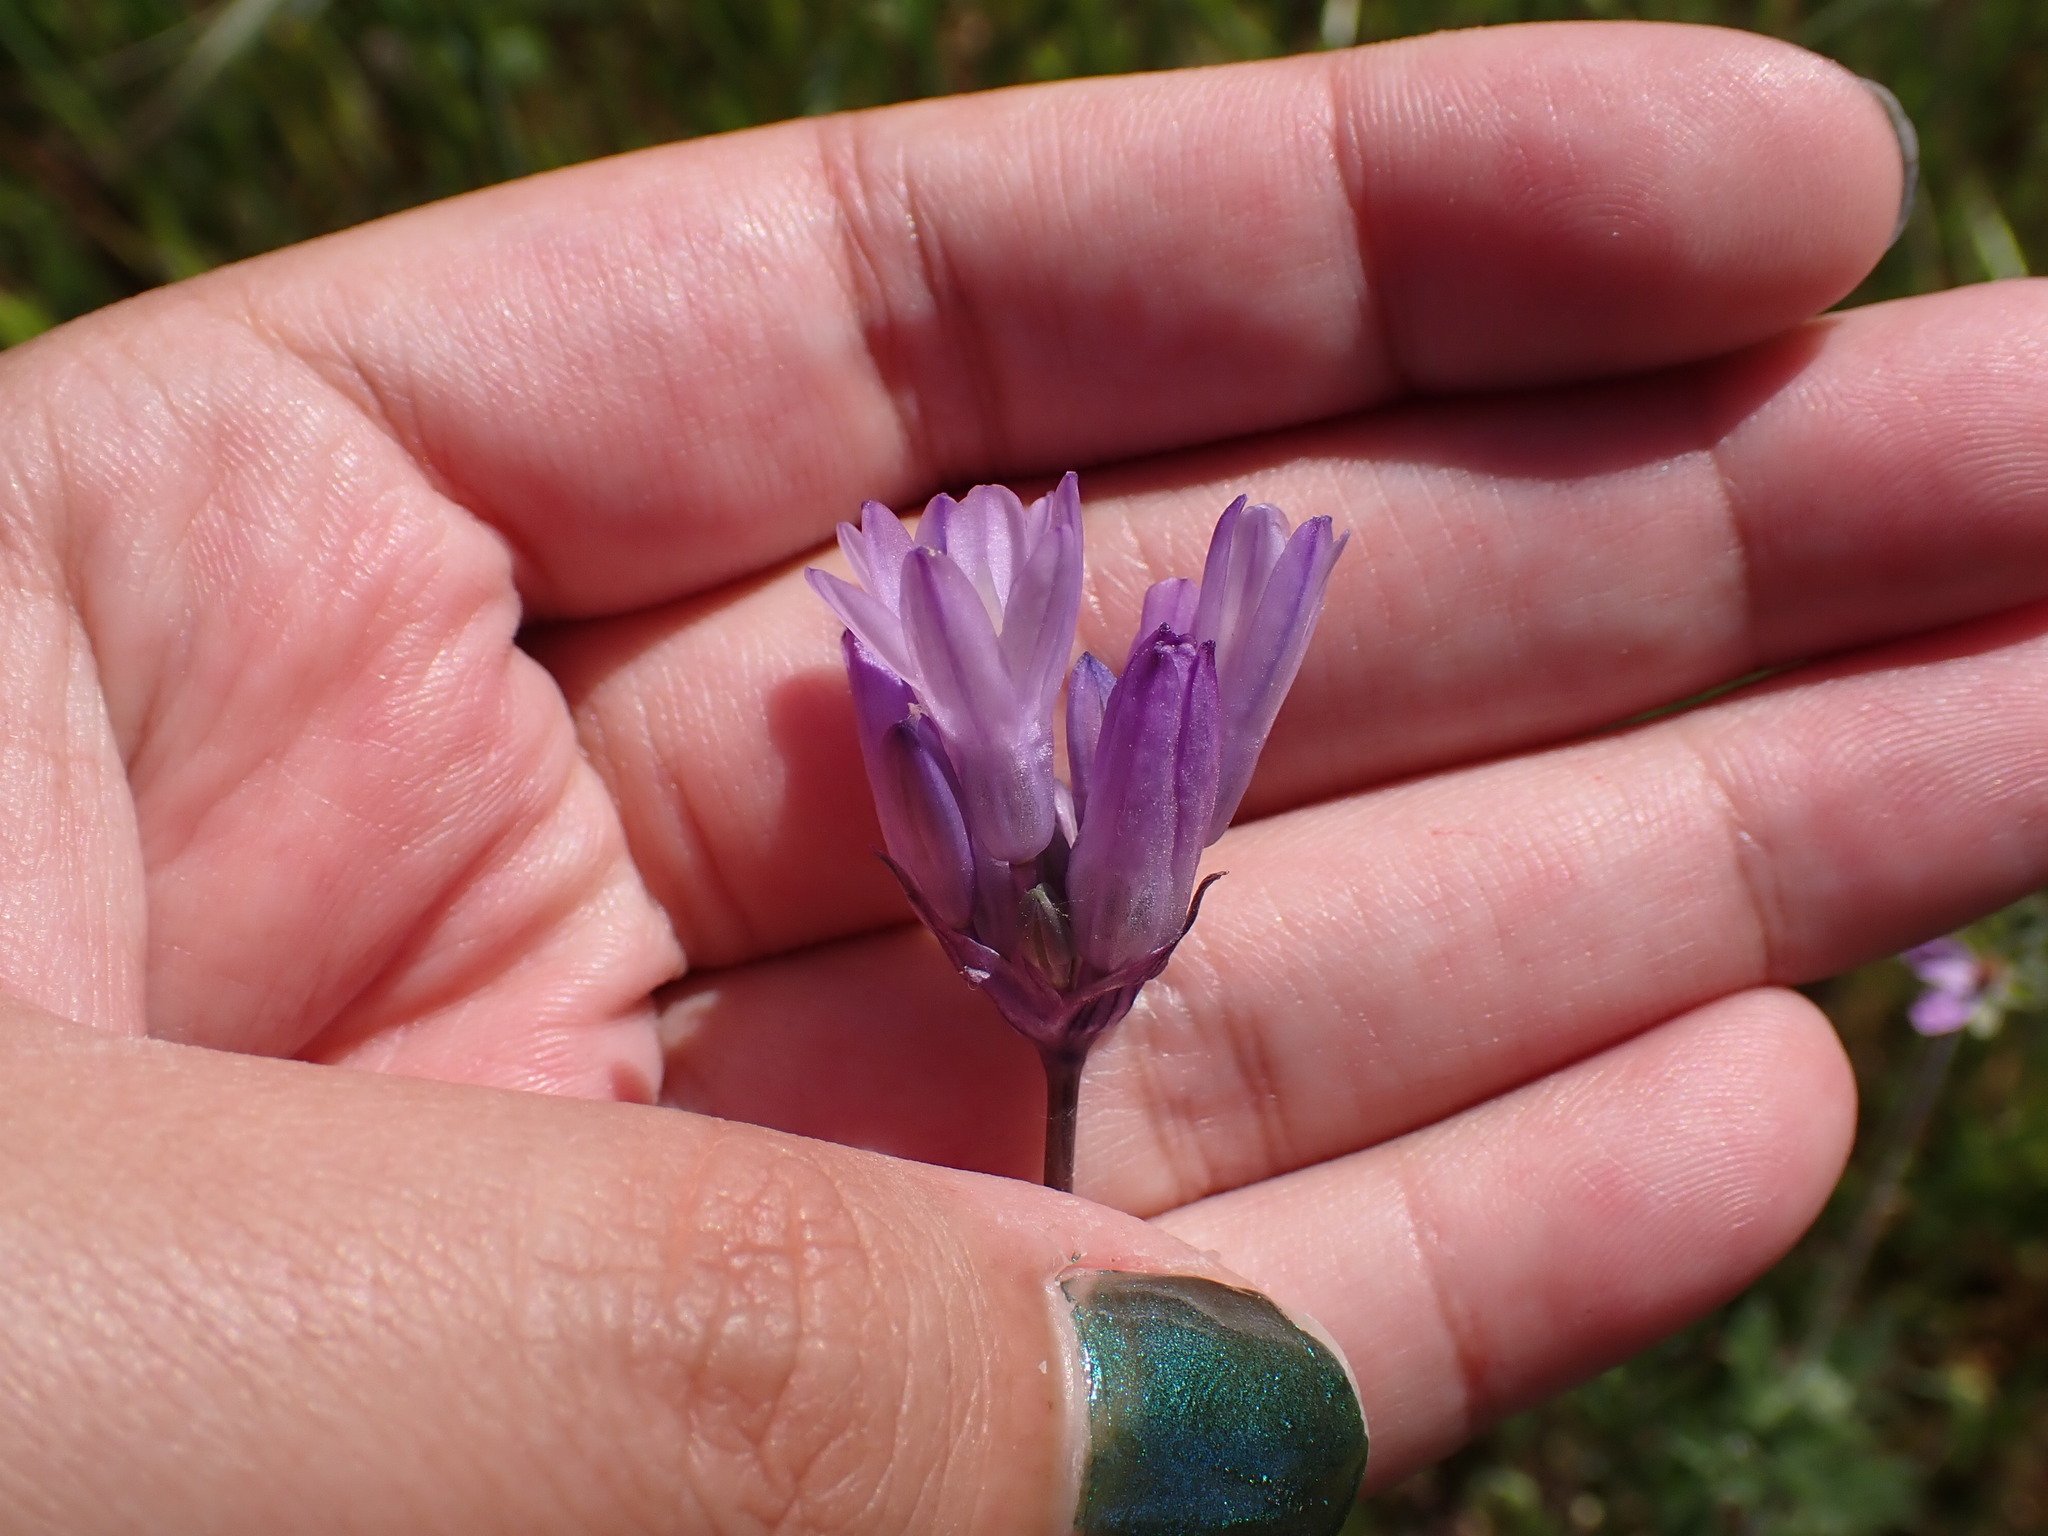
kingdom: Plantae
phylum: Tracheophyta
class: Liliopsida
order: Asparagales
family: Asparagaceae
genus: Dipterostemon
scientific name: Dipterostemon capitatus
